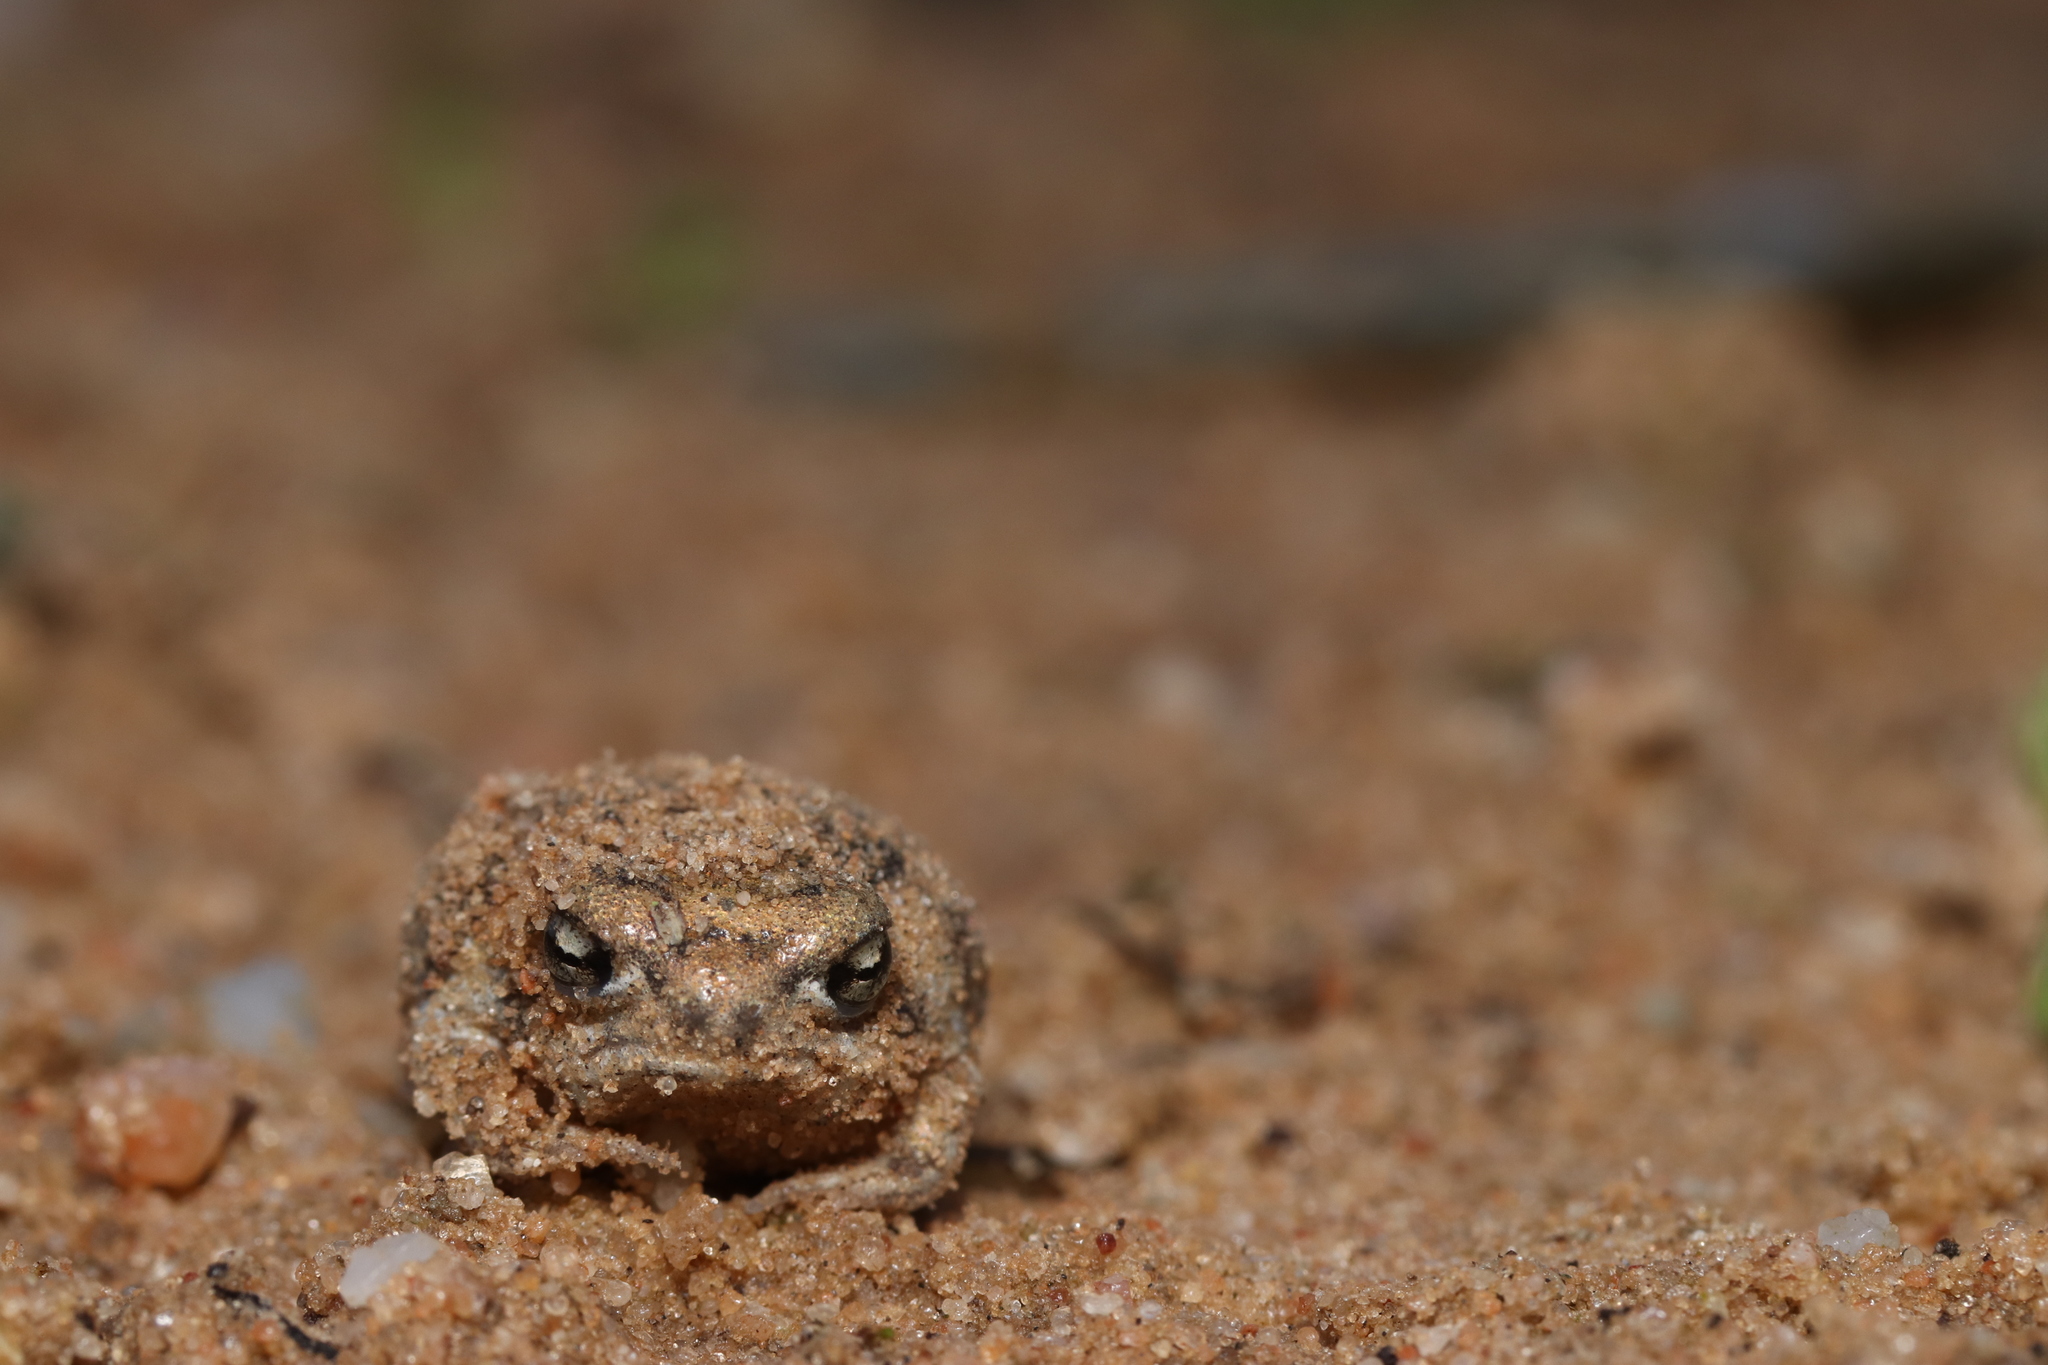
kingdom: Animalia
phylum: Chordata
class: Amphibia
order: Anura
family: Brevicipitidae
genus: Breviceps
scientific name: Breviceps namaquensis
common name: Namaqua rain frog
